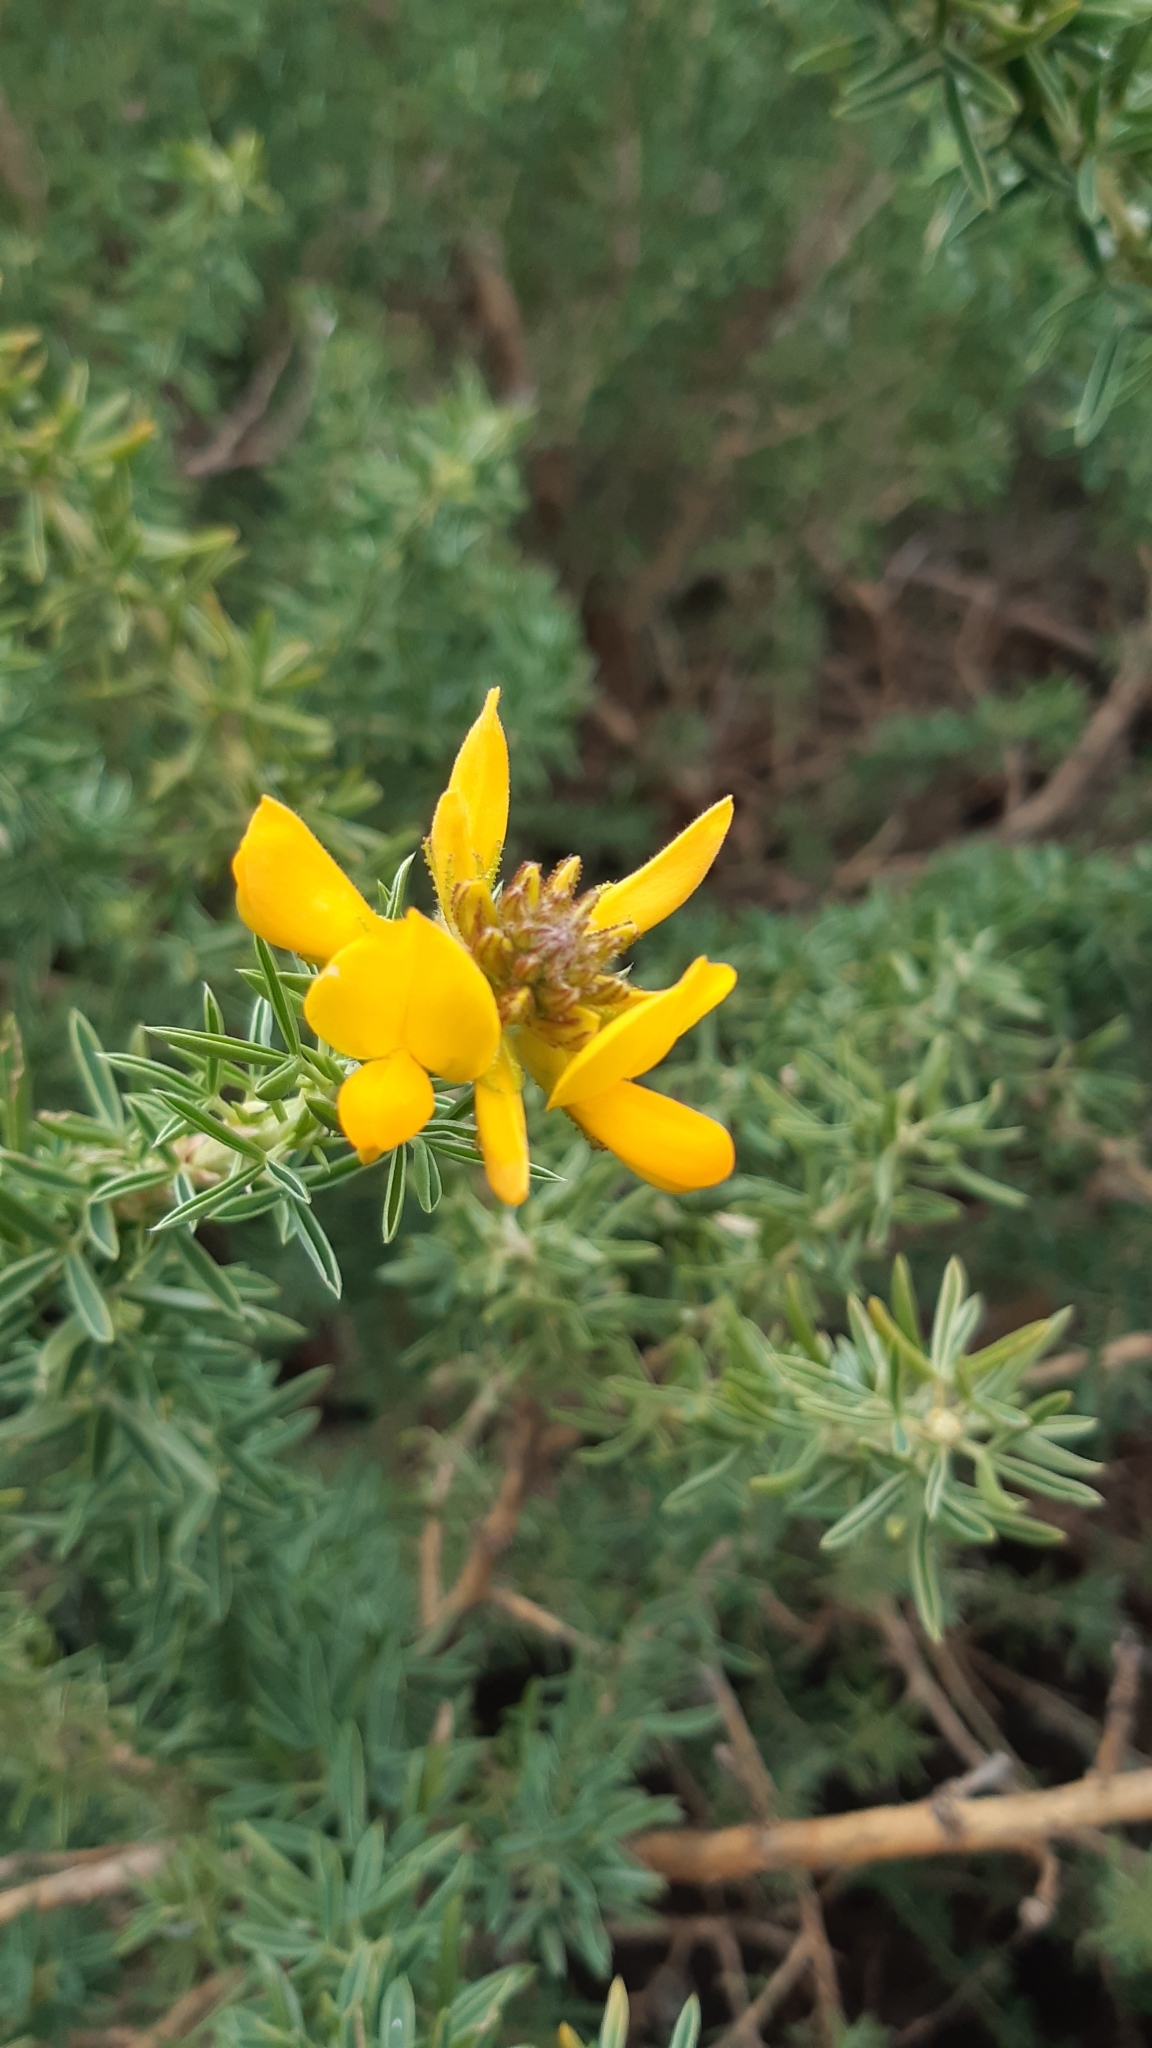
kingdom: Plantae
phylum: Tracheophyta
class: Magnoliopsida
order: Fabales
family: Fabaceae
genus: Adenocarpus
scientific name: Adenocarpus hispanicus
